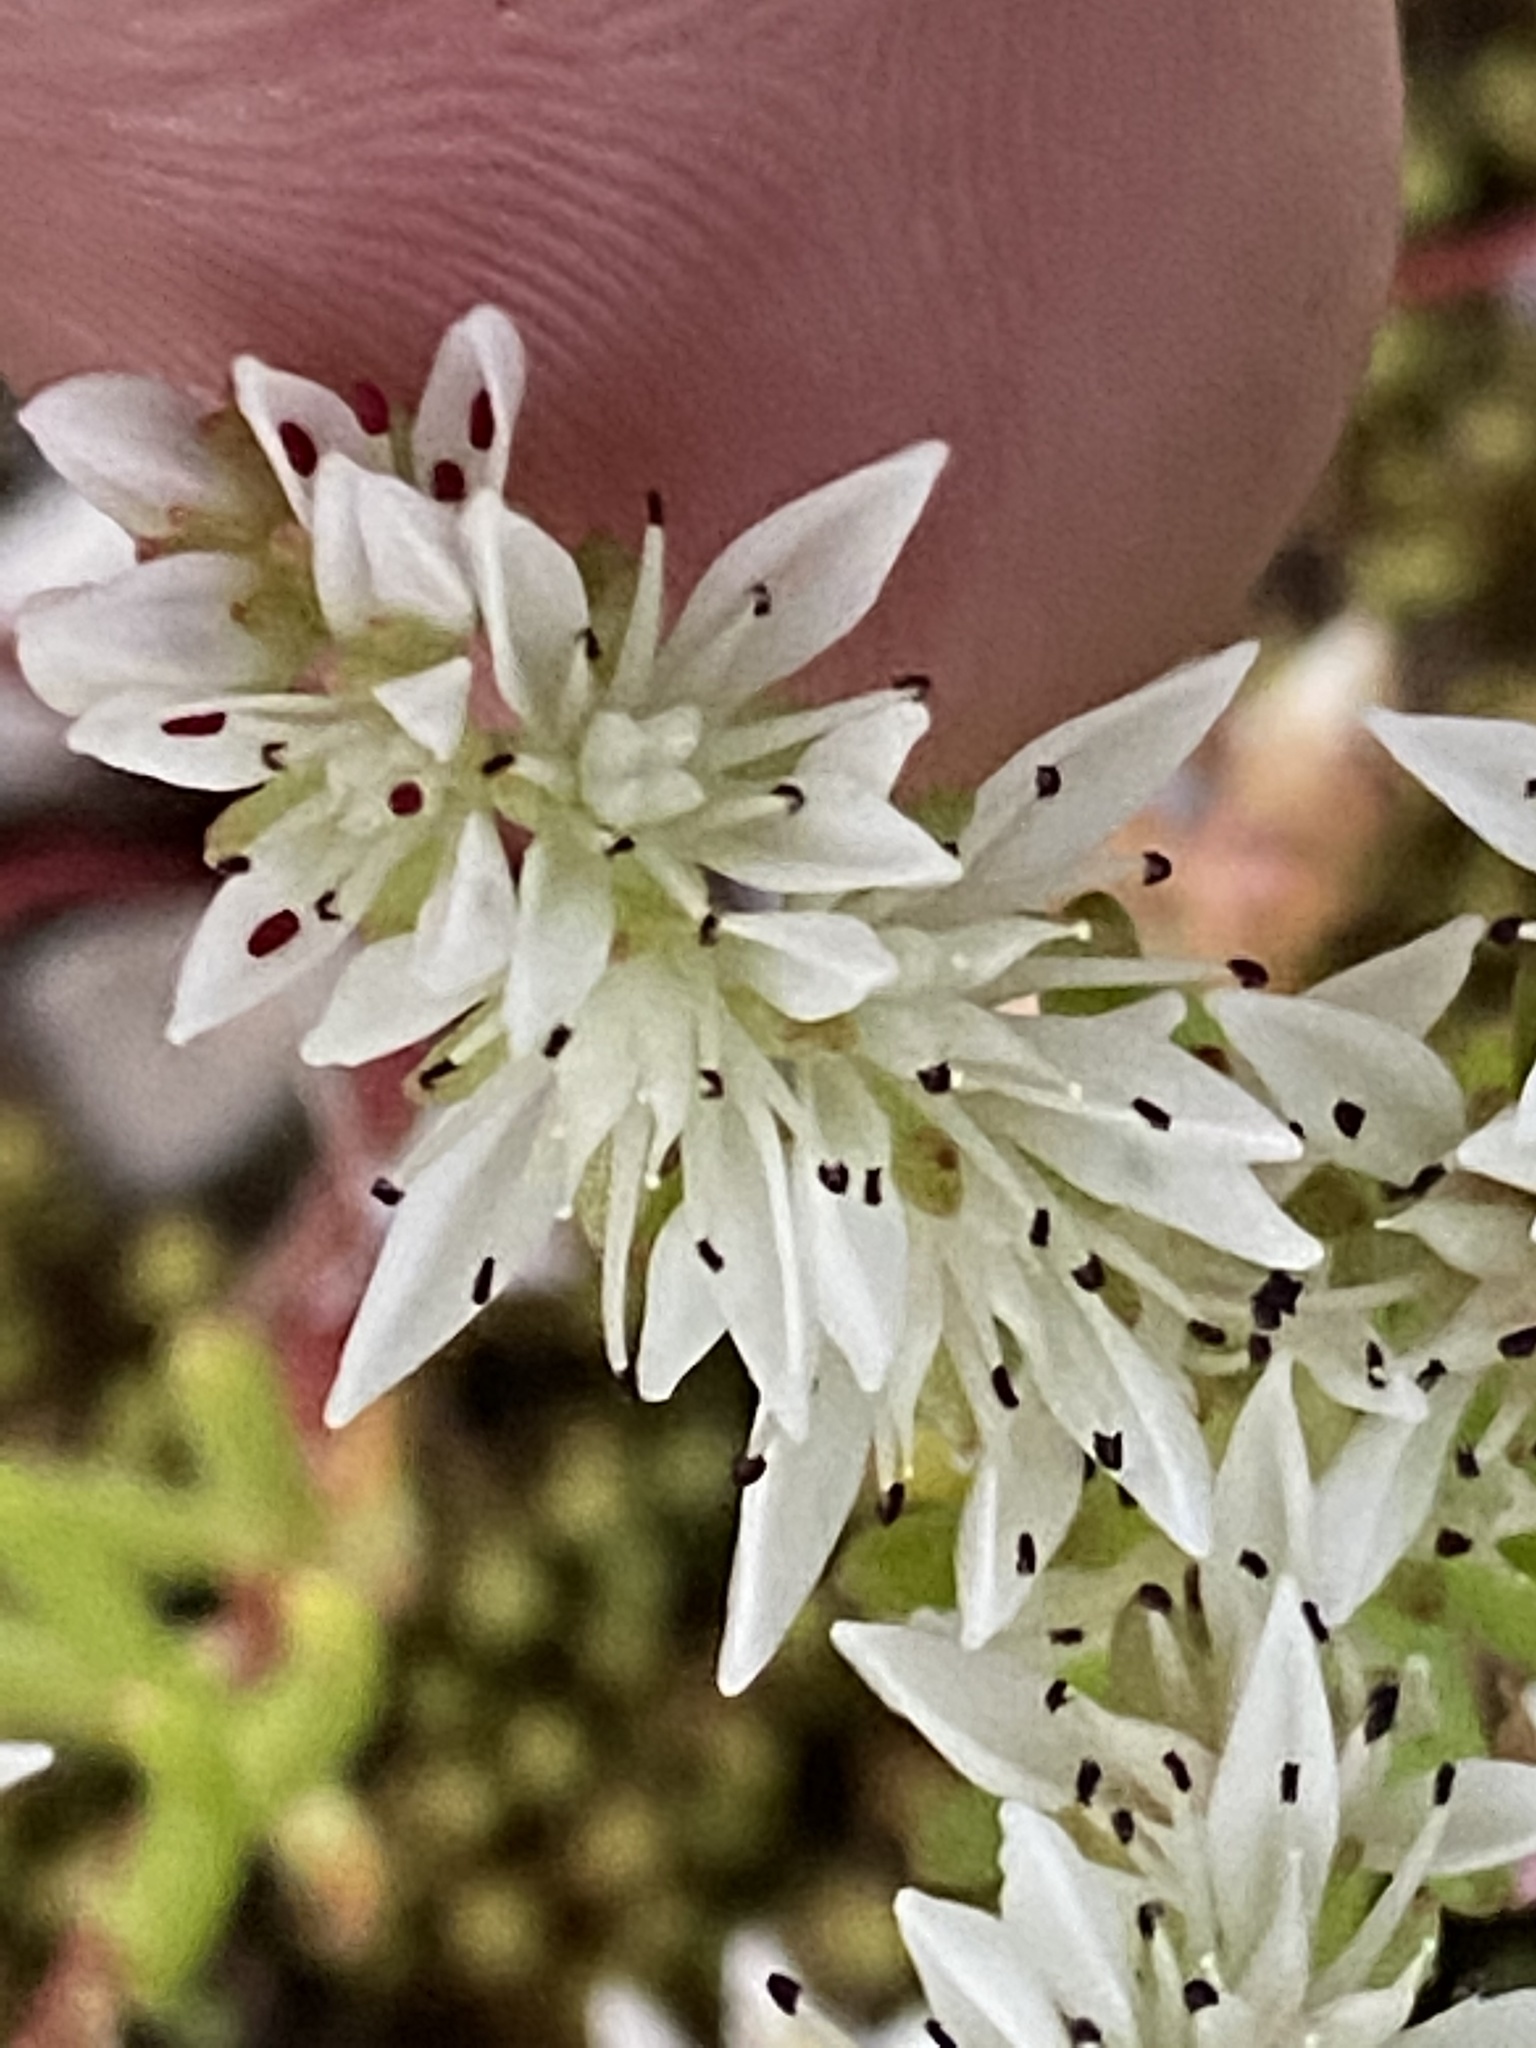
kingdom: Plantae
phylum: Tracheophyta
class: Magnoliopsida
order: Saxifragales
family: Crassulaceae
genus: Sedum
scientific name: Sedum pulchellum
